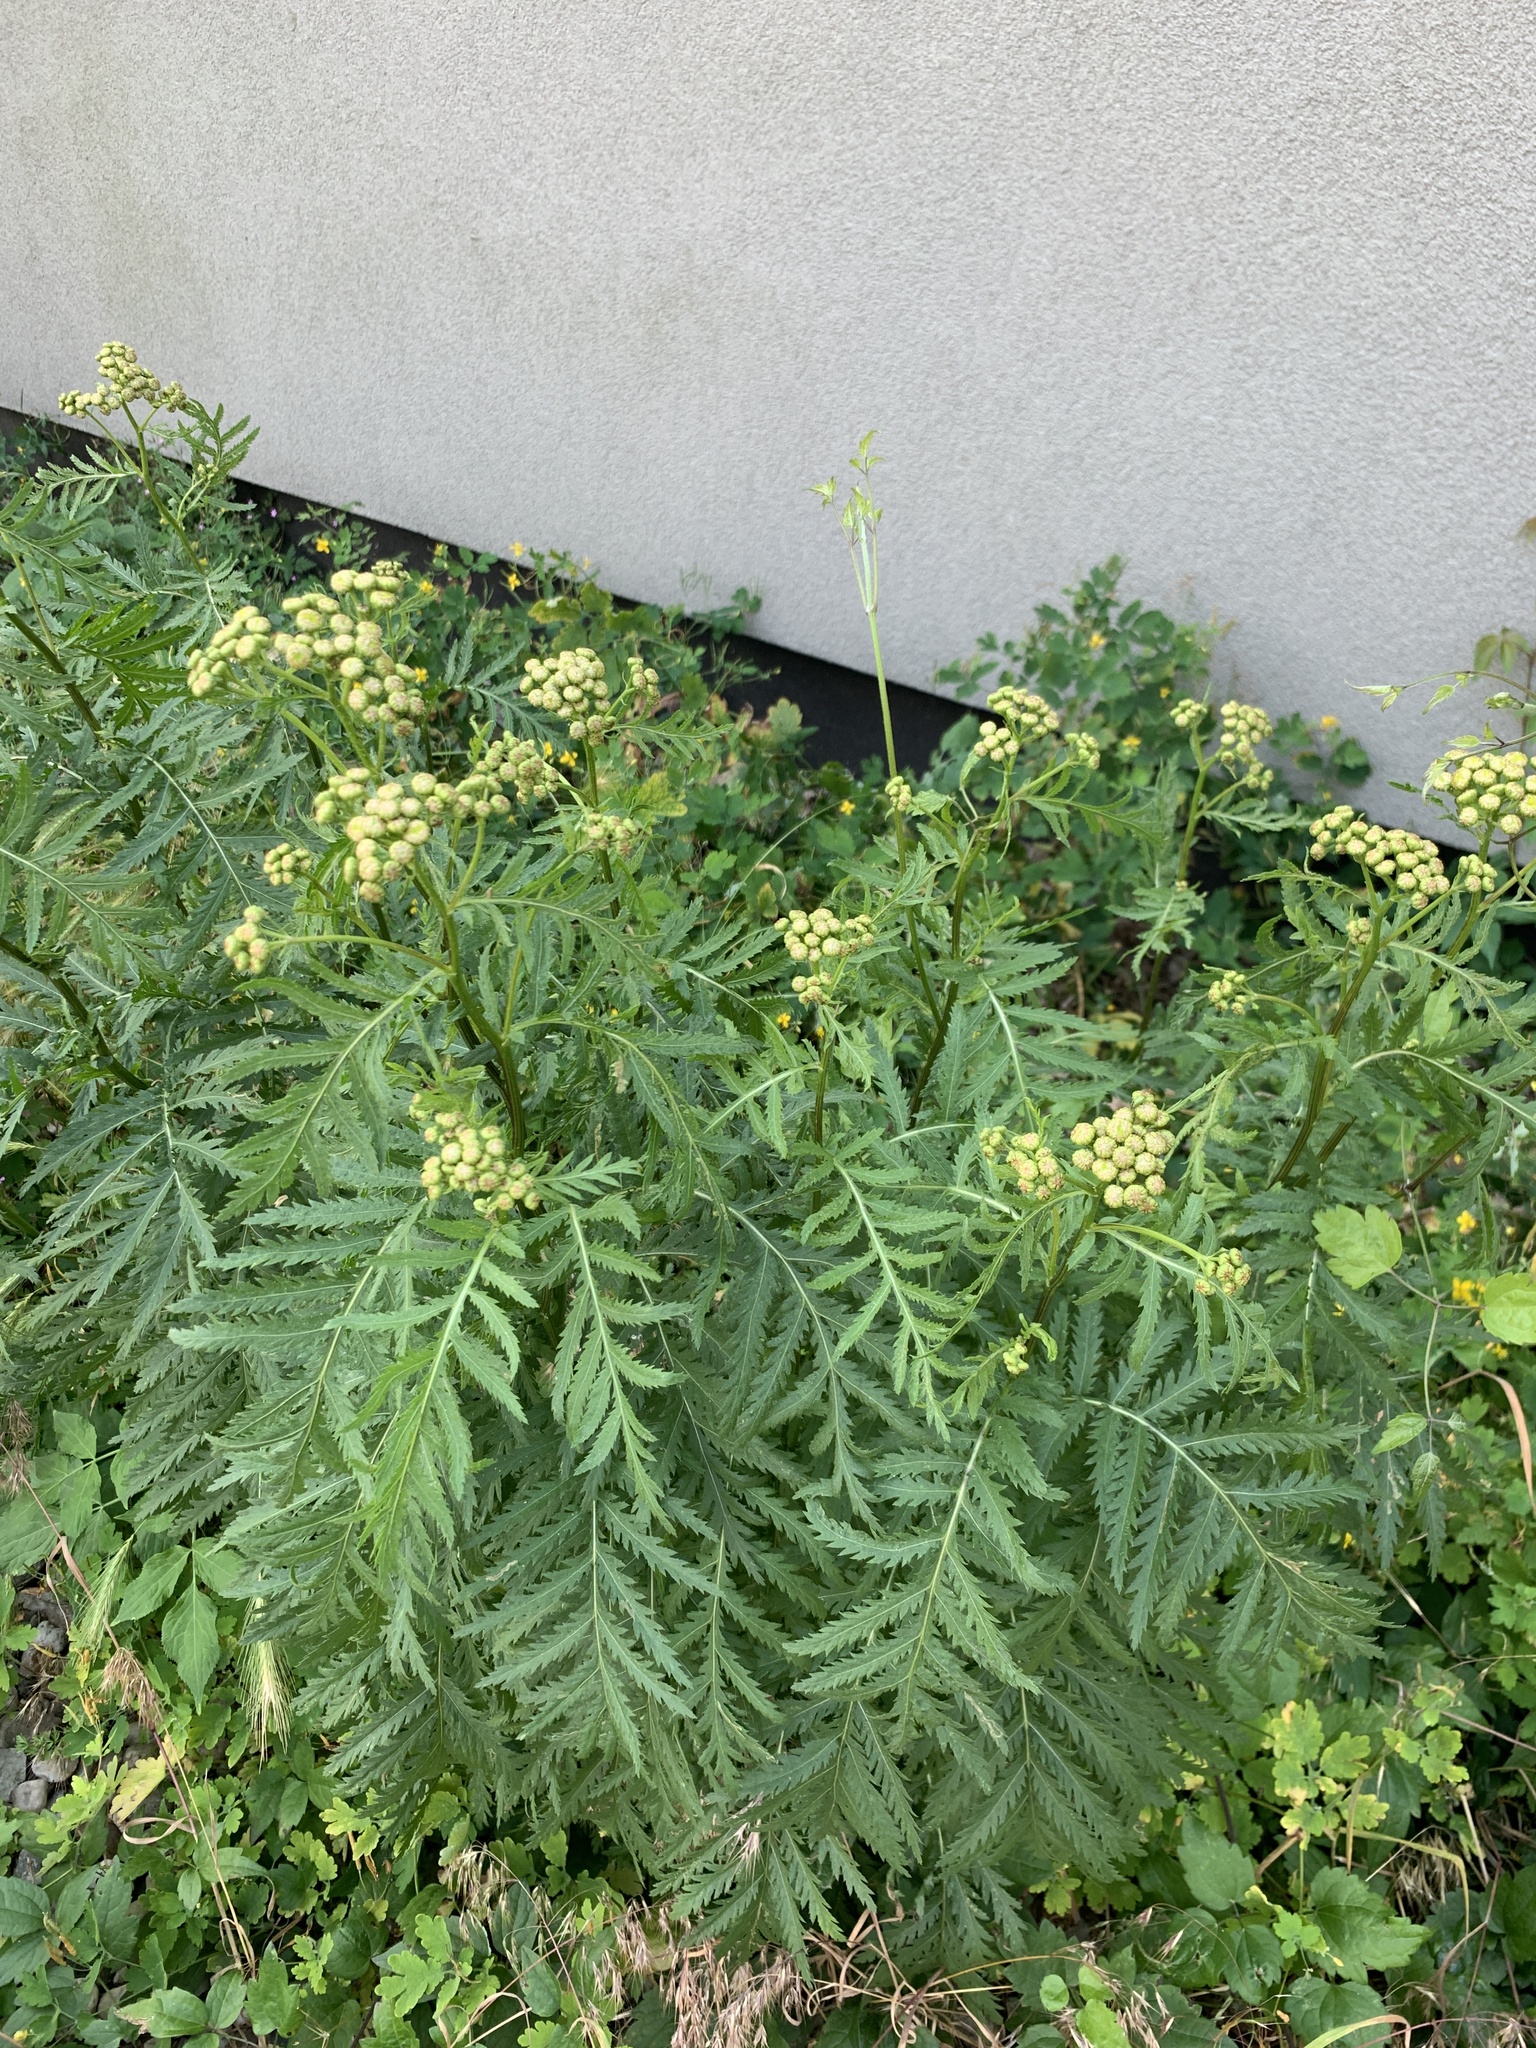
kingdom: Plantae
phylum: Tracheophyta
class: Magnoliopsida
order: Asterales
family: Asteraceae
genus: Tanacetum
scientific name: Tanacetum vulgare
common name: Common tansy
